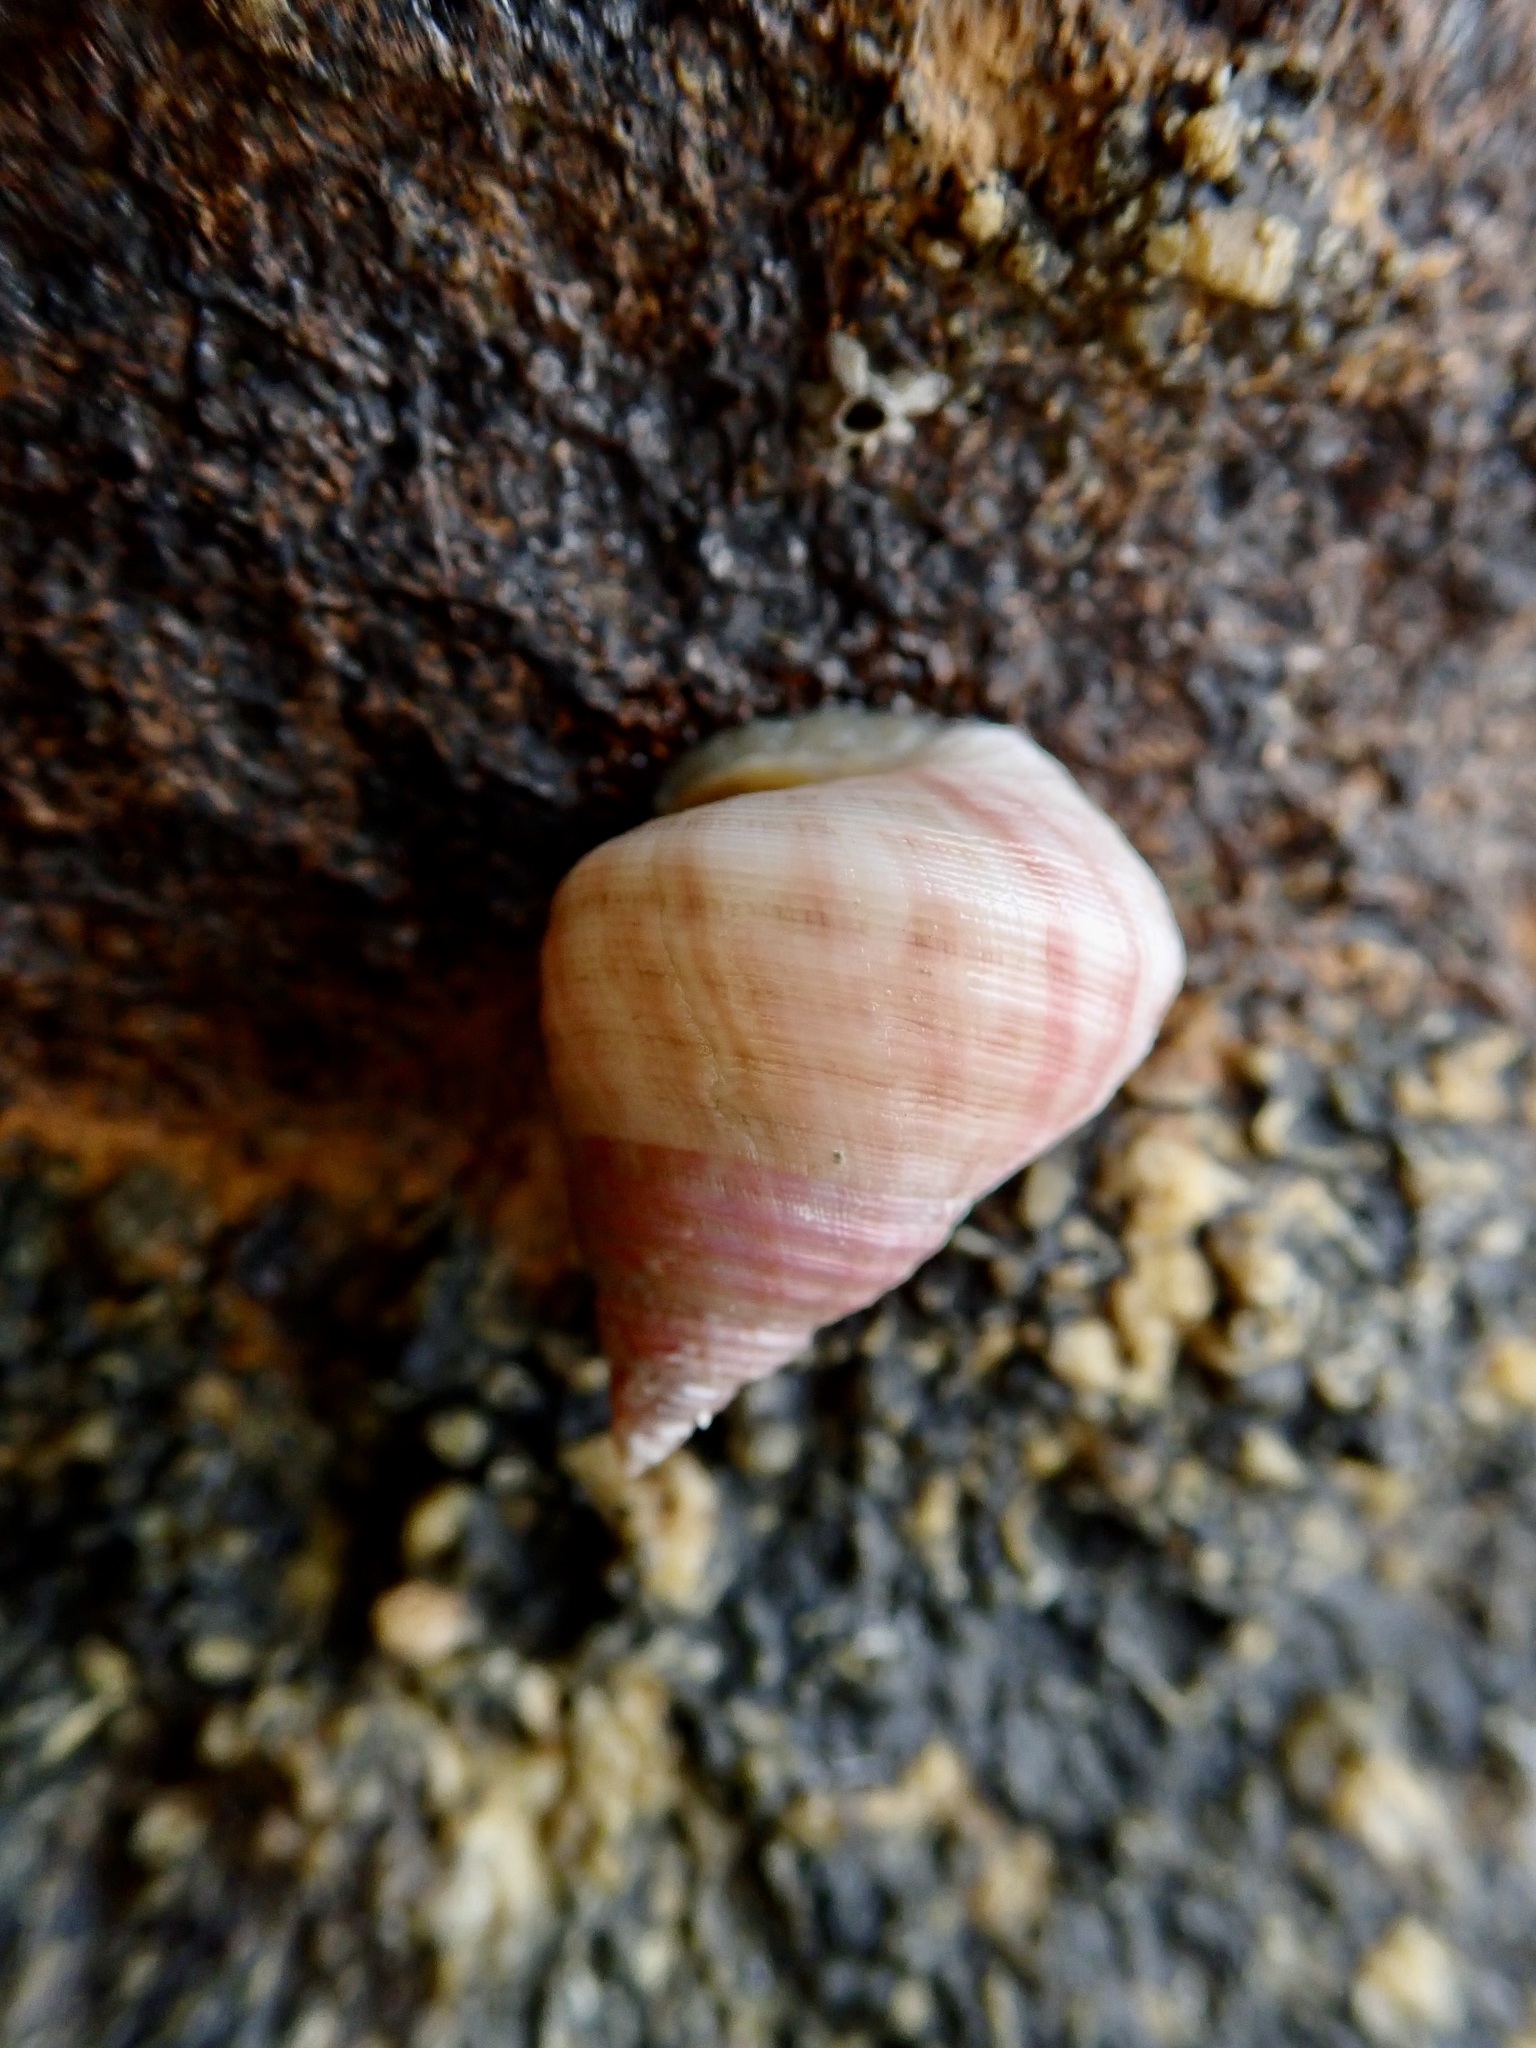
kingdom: Animalia
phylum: Mollusca
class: Gastropoda
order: Trochida
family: Trochidae
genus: Micrelenchus
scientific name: Micrelenchus purpureus
